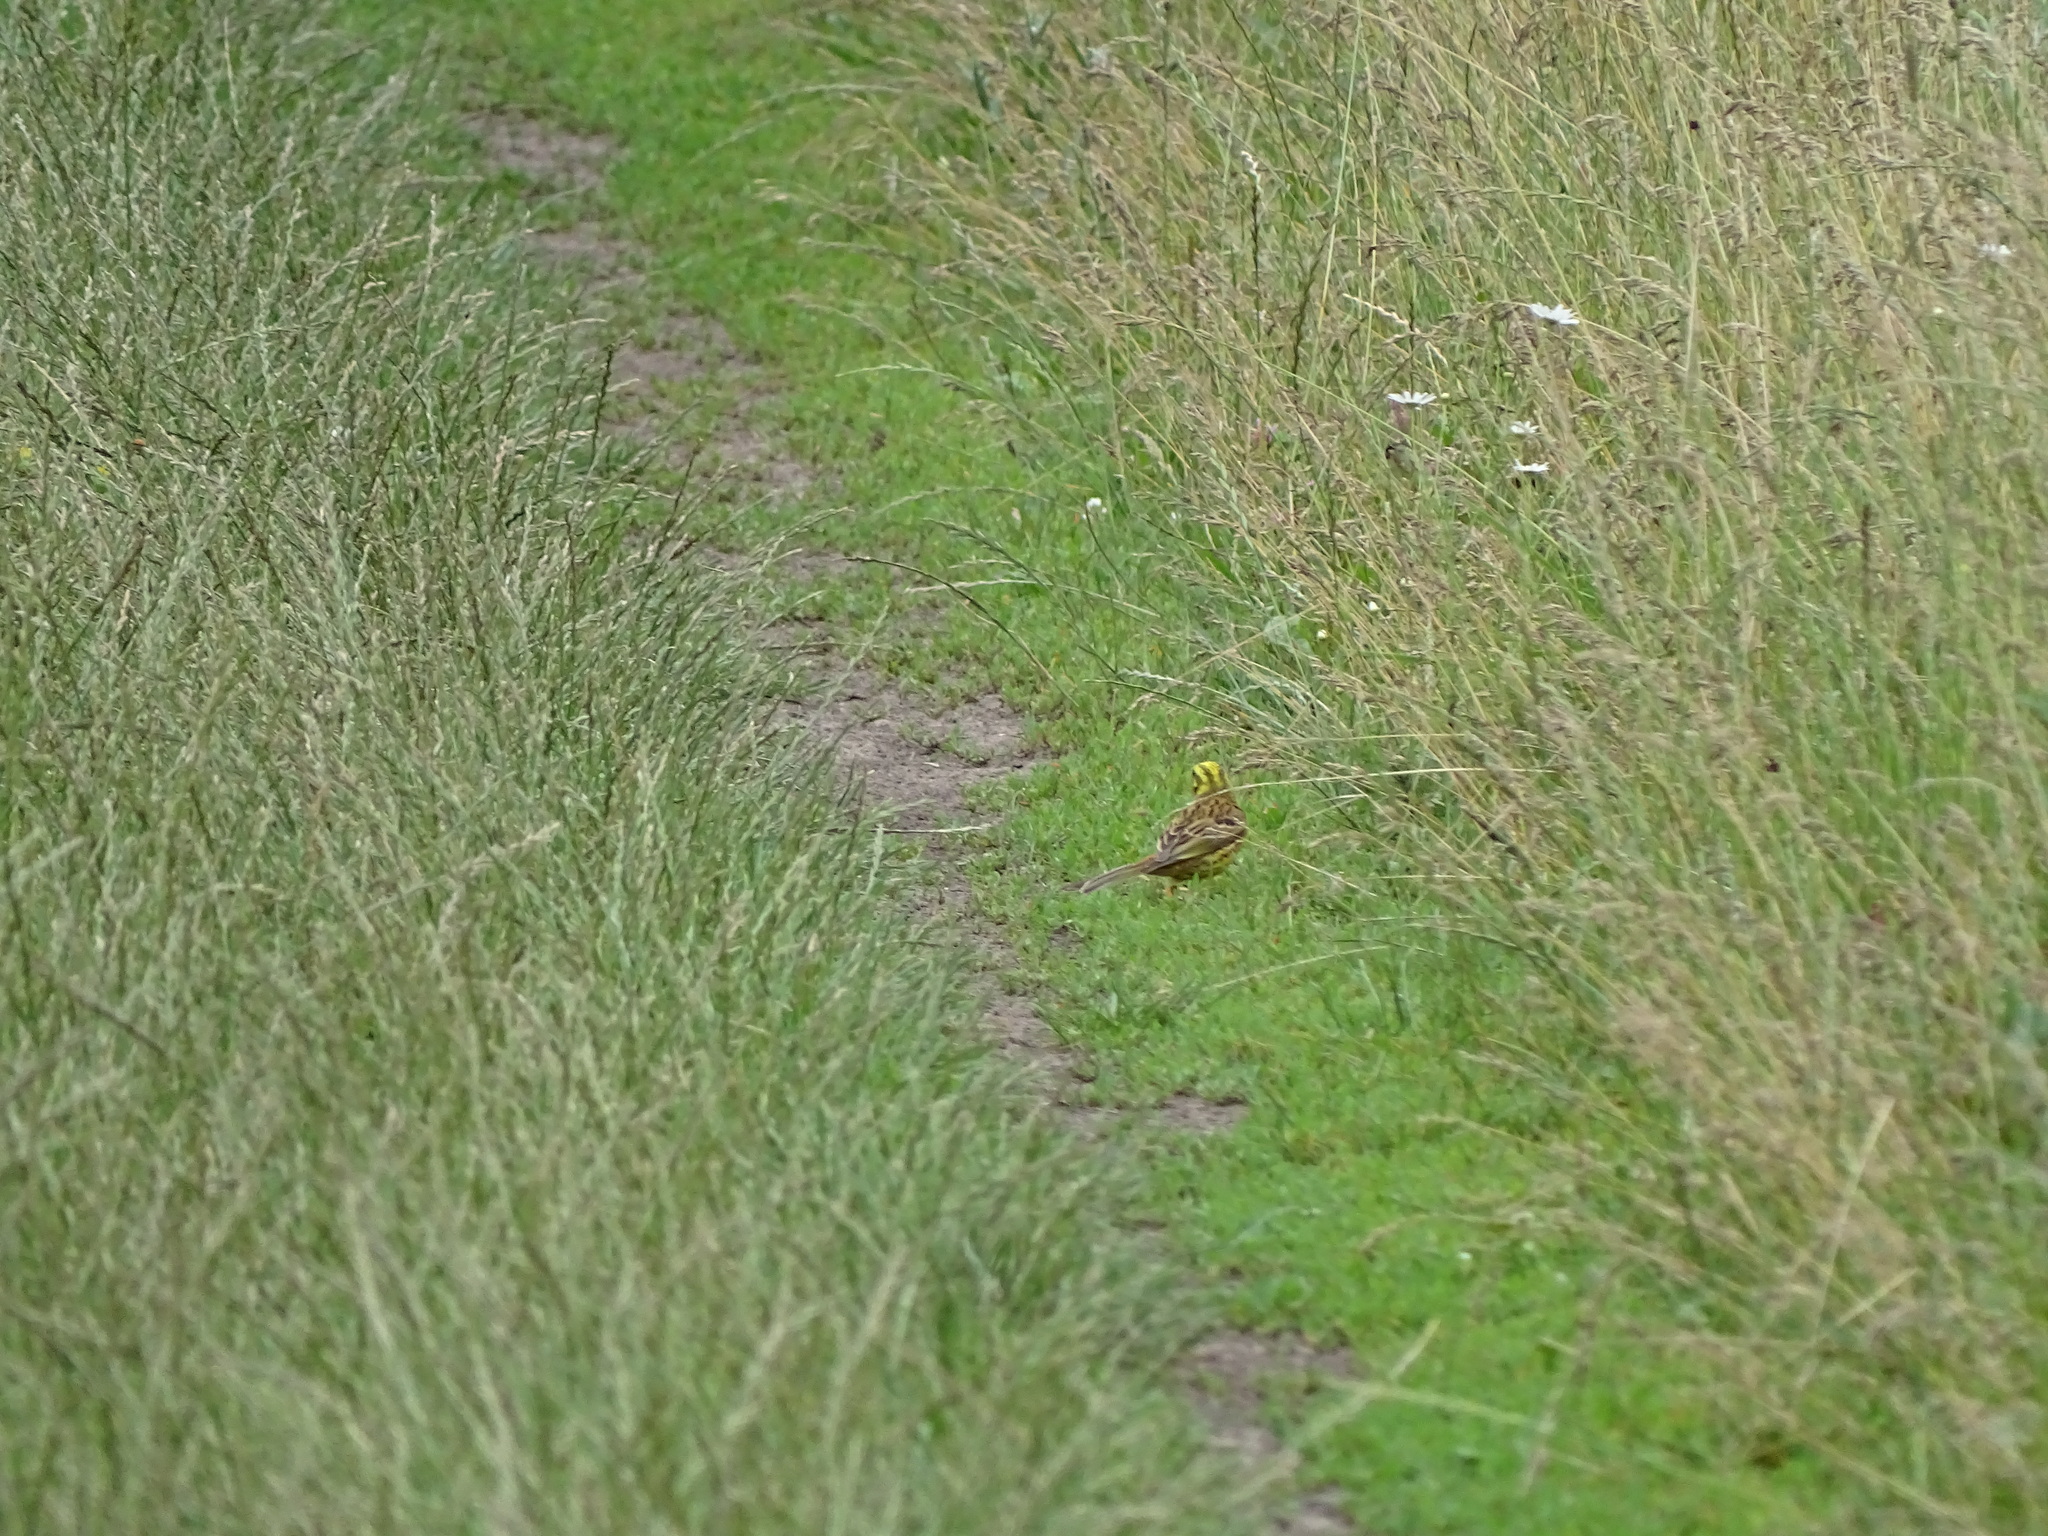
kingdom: Animalia
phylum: Chordata
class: Aves
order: Passeriformes
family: Emberizidae
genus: Emberiza
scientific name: Emberiza citrinella
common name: Yellowhammer
